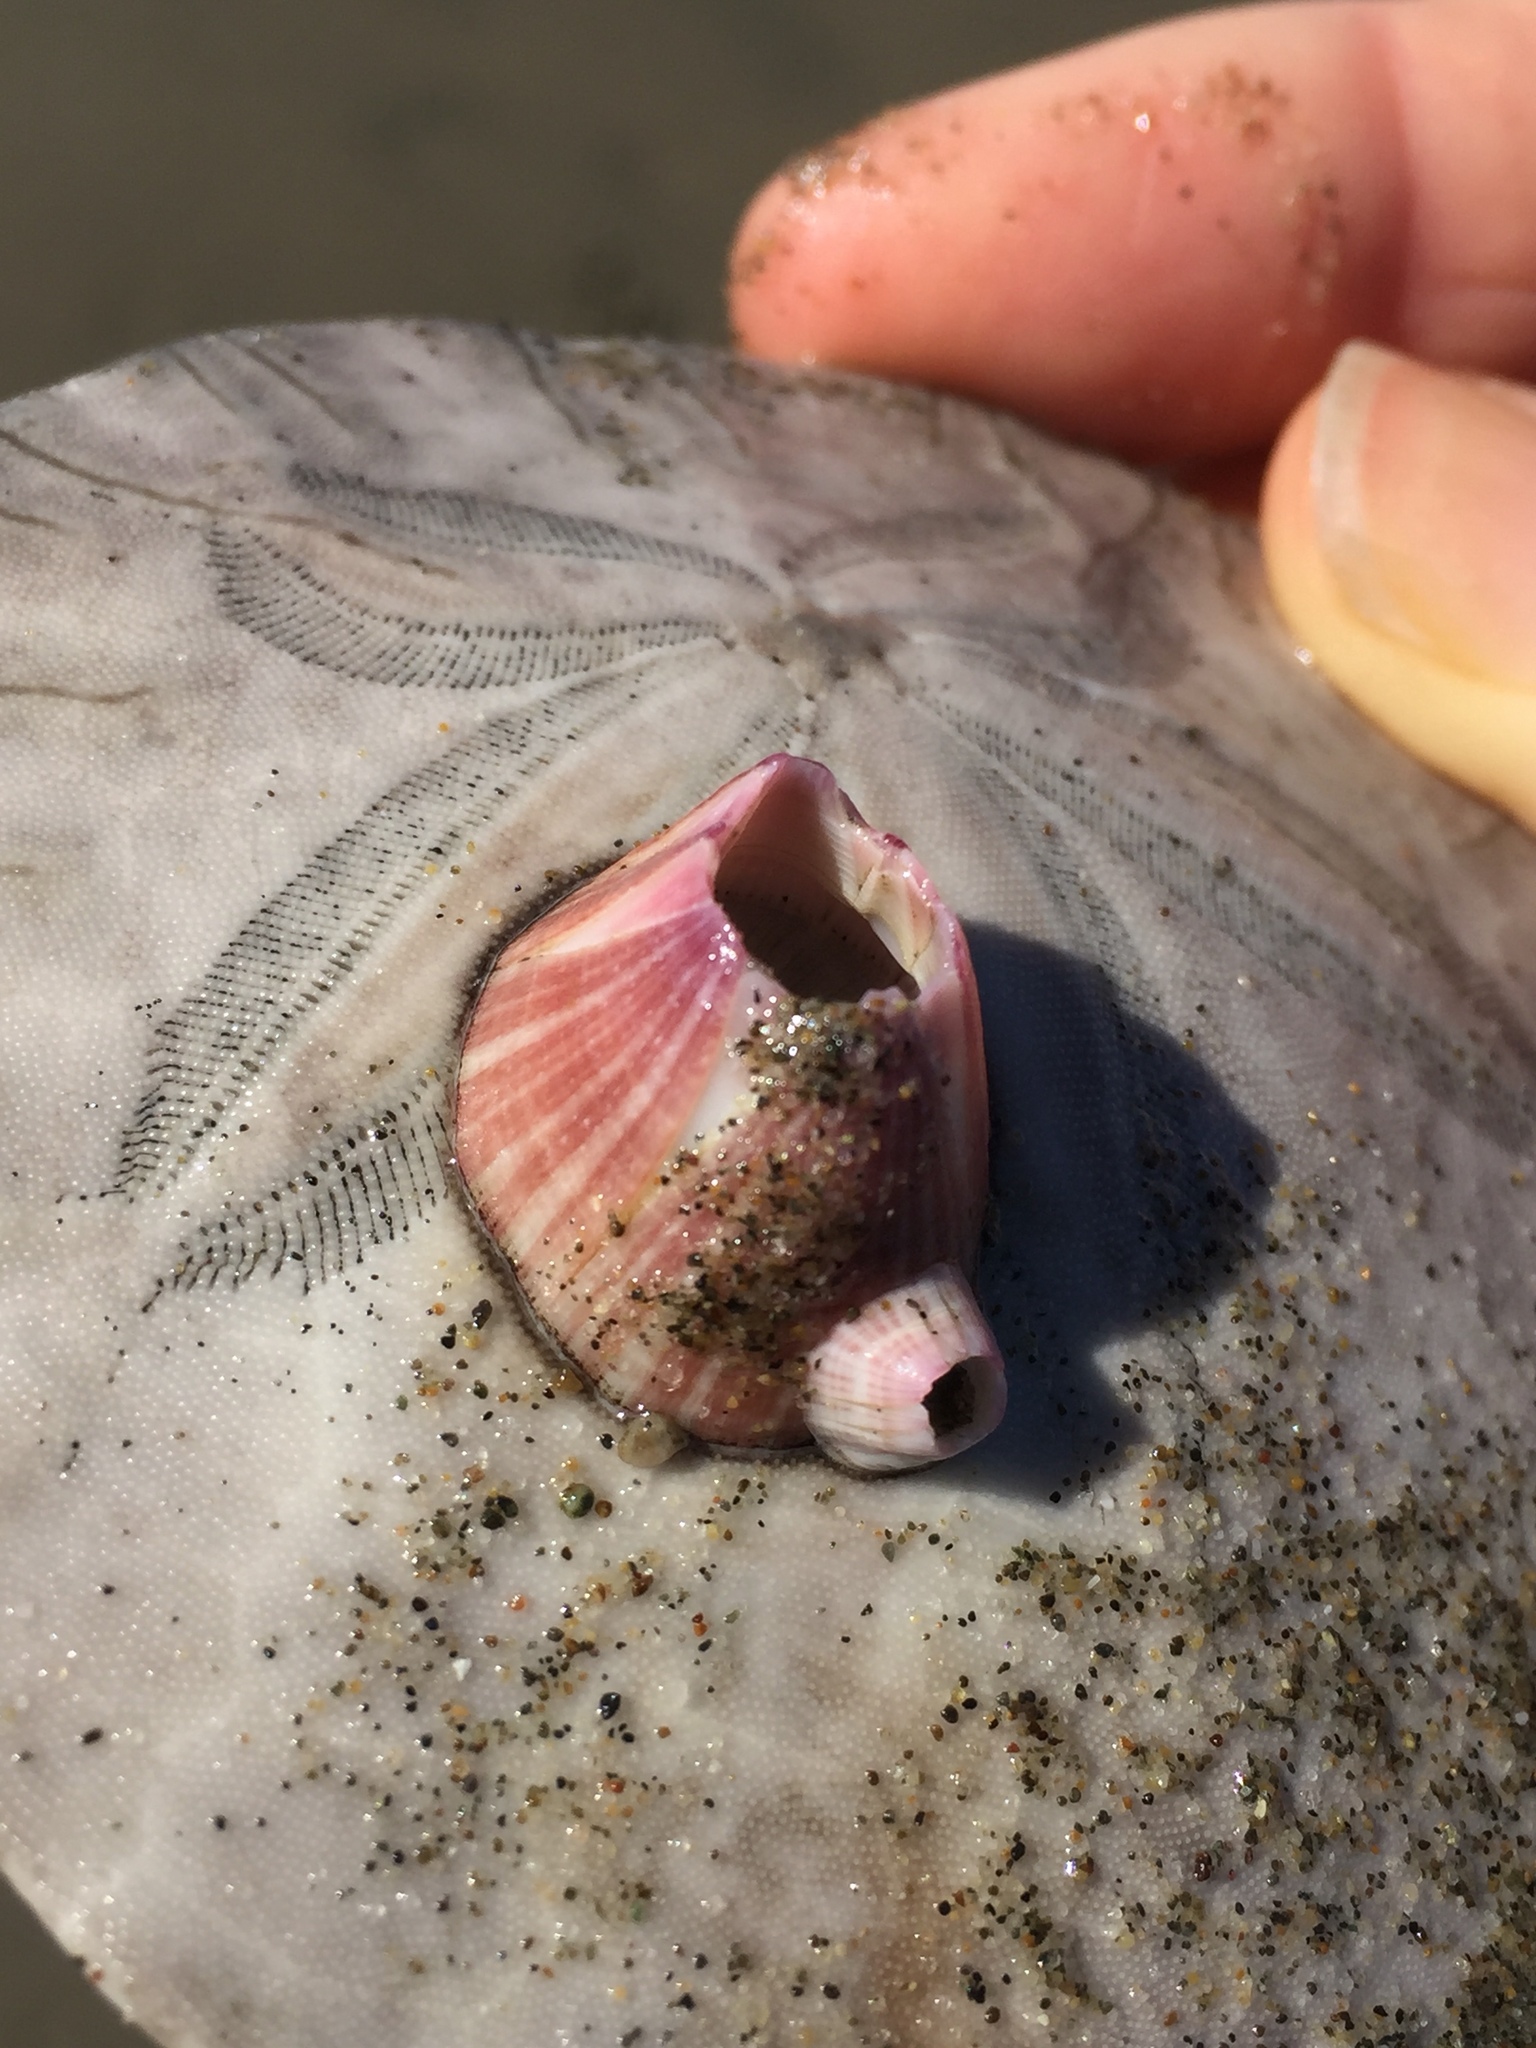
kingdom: Animalia
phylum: Arthropoda
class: Maxillopoda
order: Sessilia
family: Balanidae
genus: Paraconcavus
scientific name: Paraconcavus pacificus
